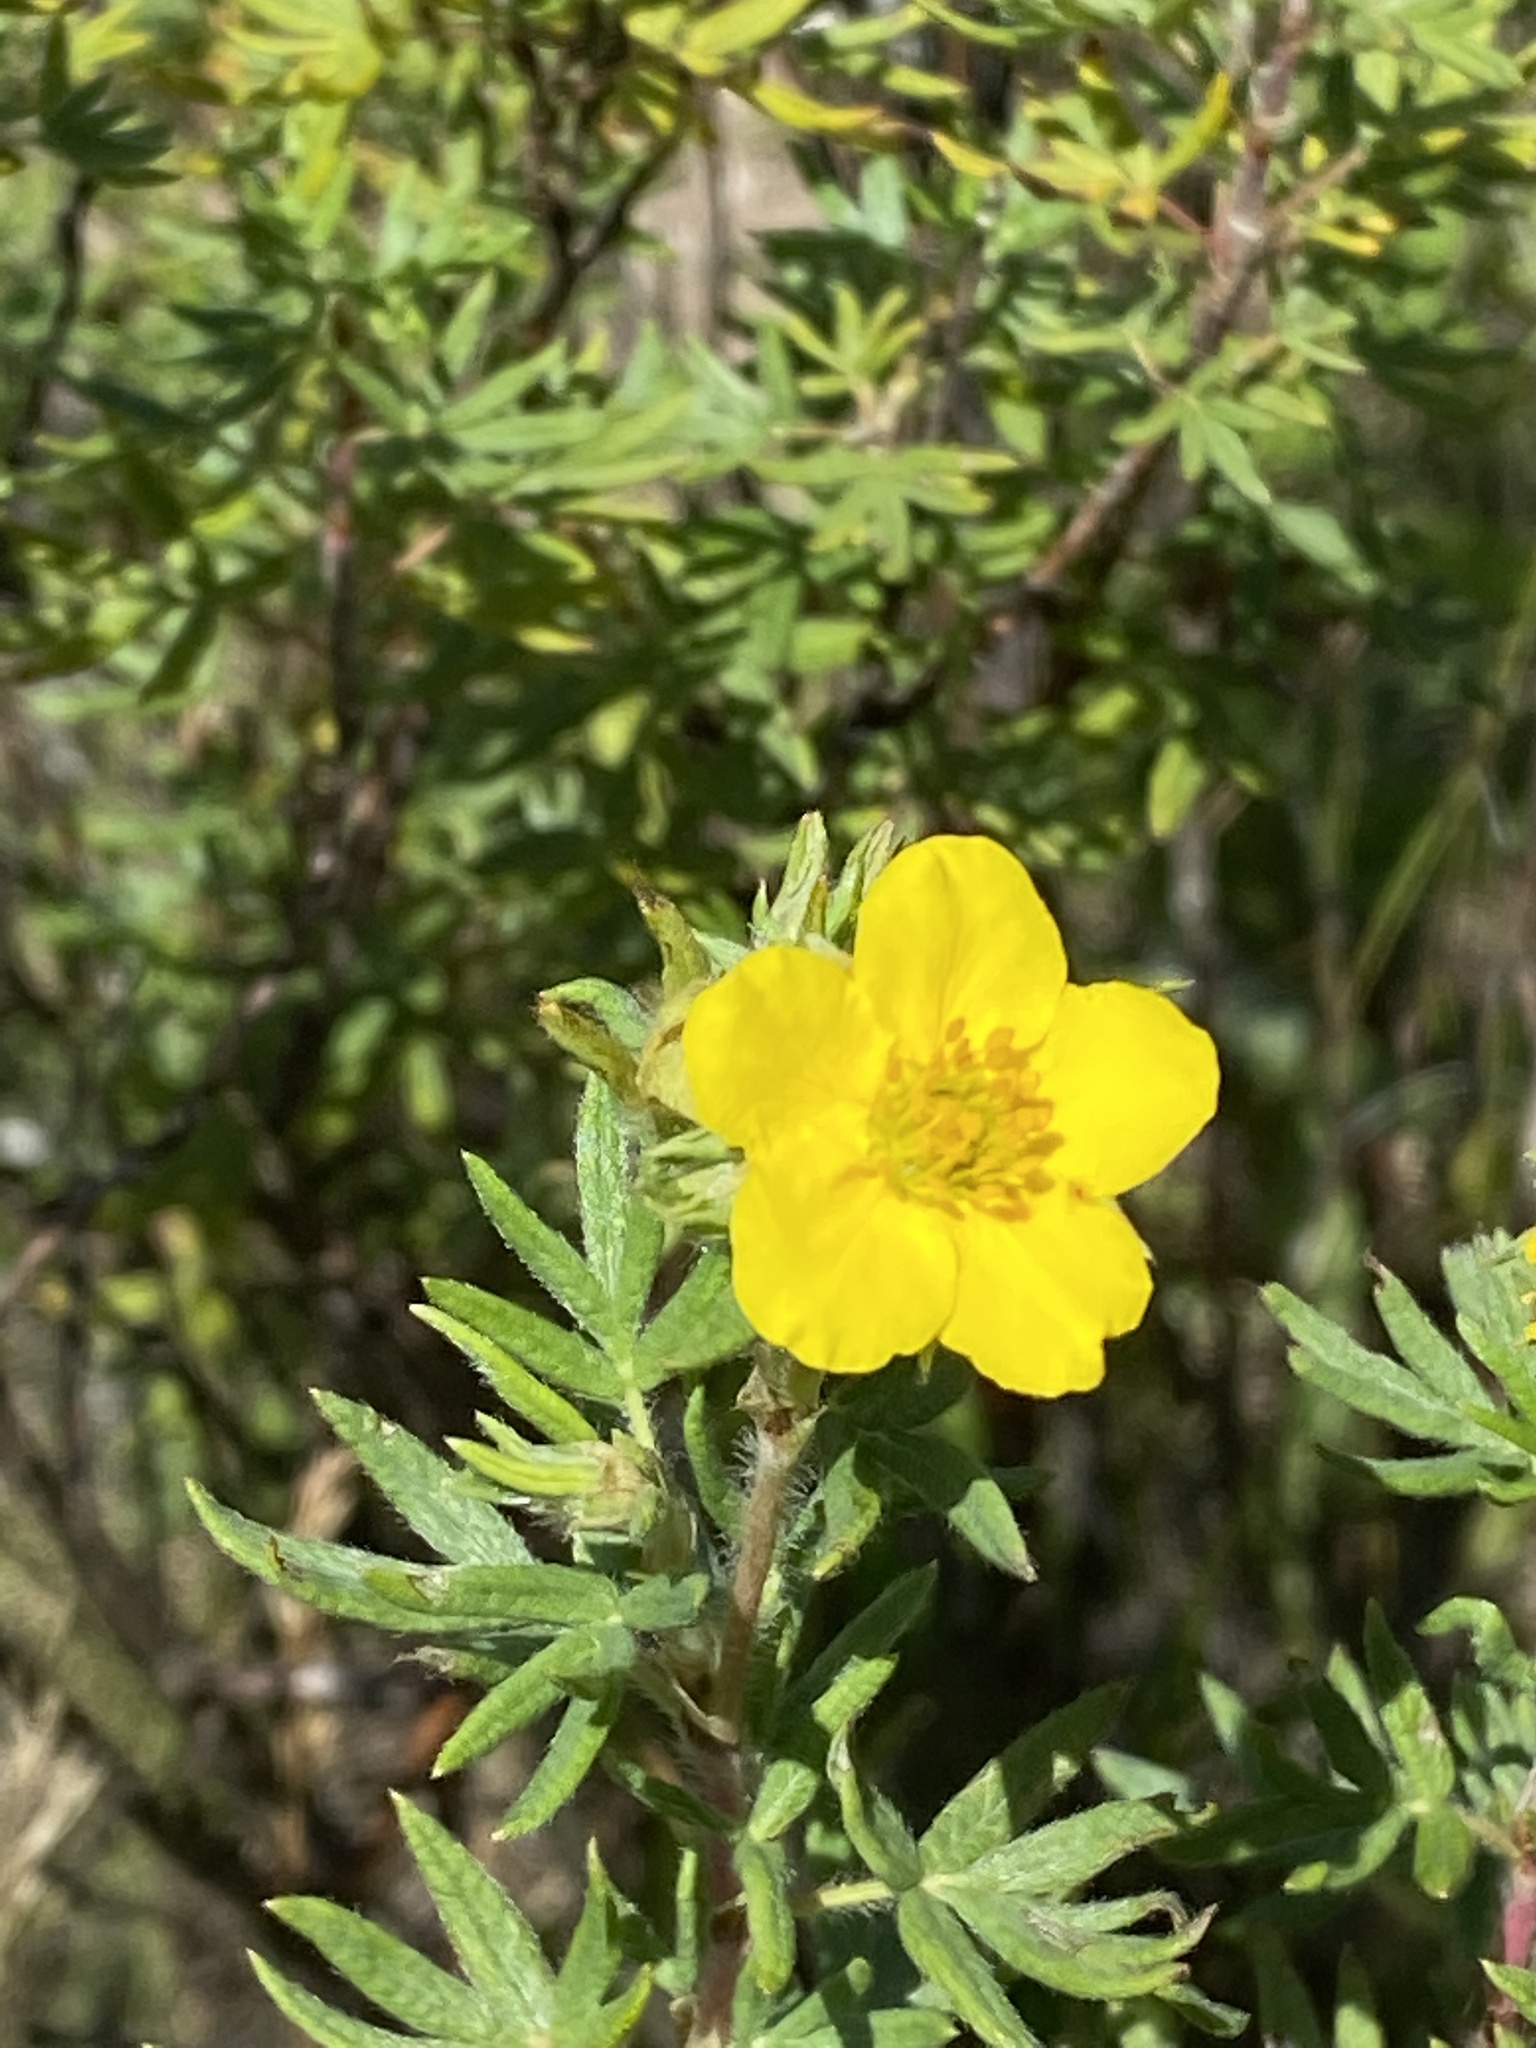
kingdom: Plantae
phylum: Tracheophyta
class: Magnoliopsida
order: Rosales
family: Rosaceae
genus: Dasiphora
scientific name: Dasiphora fruticosa
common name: Shrubby cinquefoil
